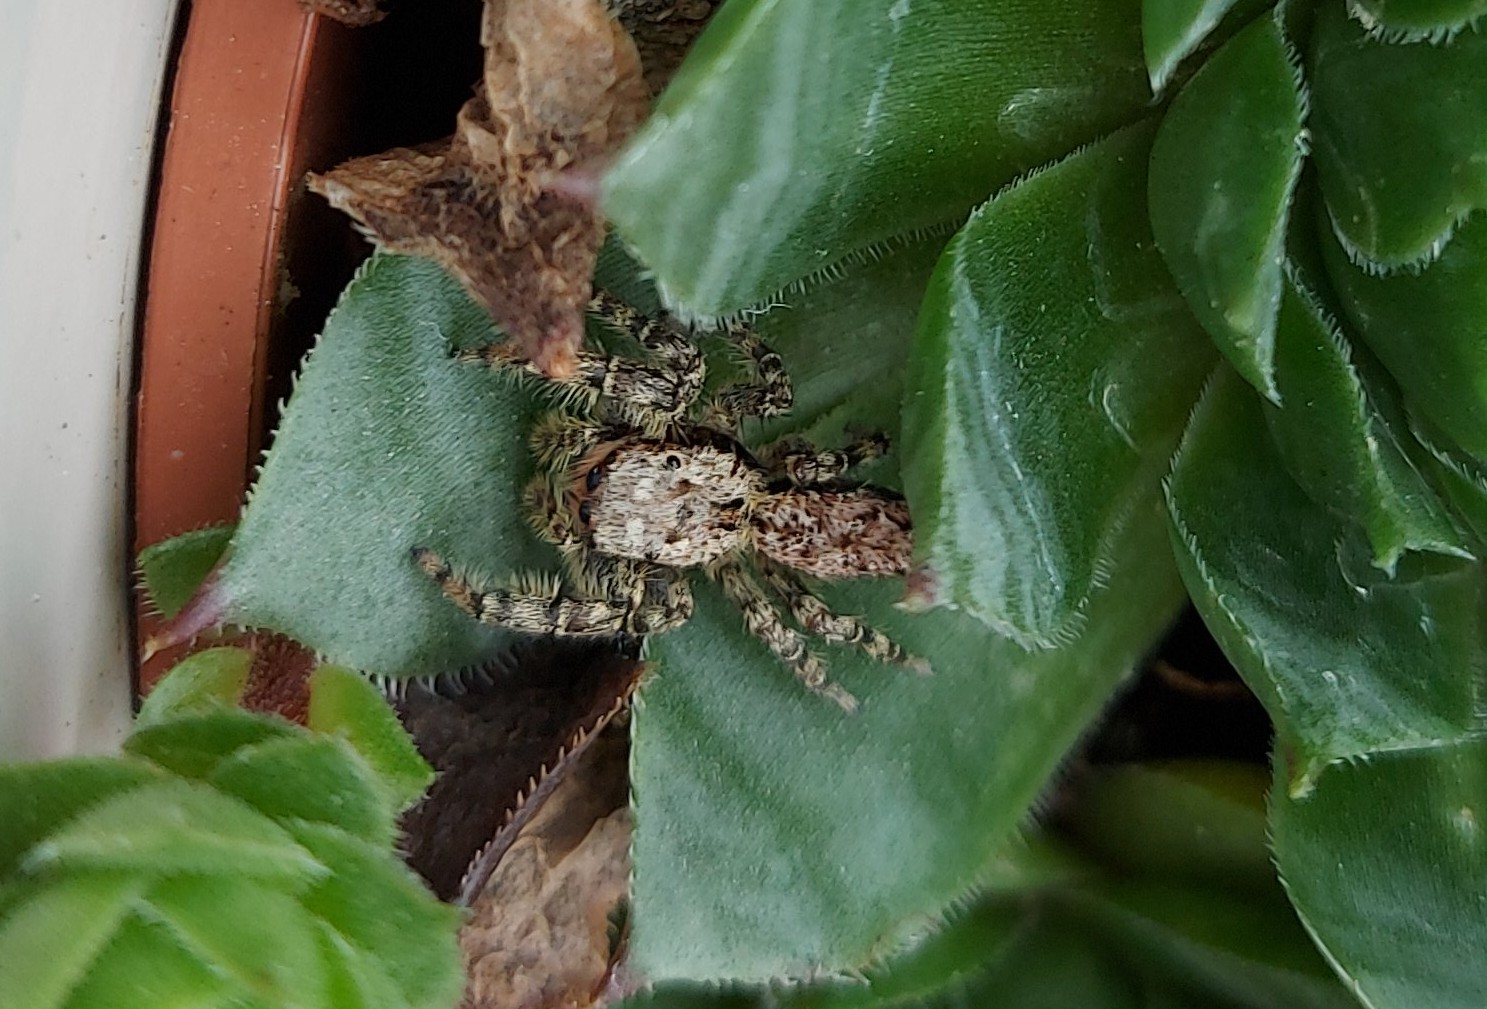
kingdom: Animalia
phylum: Arthropoda
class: Arachnida
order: Araneae
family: Salticidae
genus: Marpissa
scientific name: Marpissa muscosa
